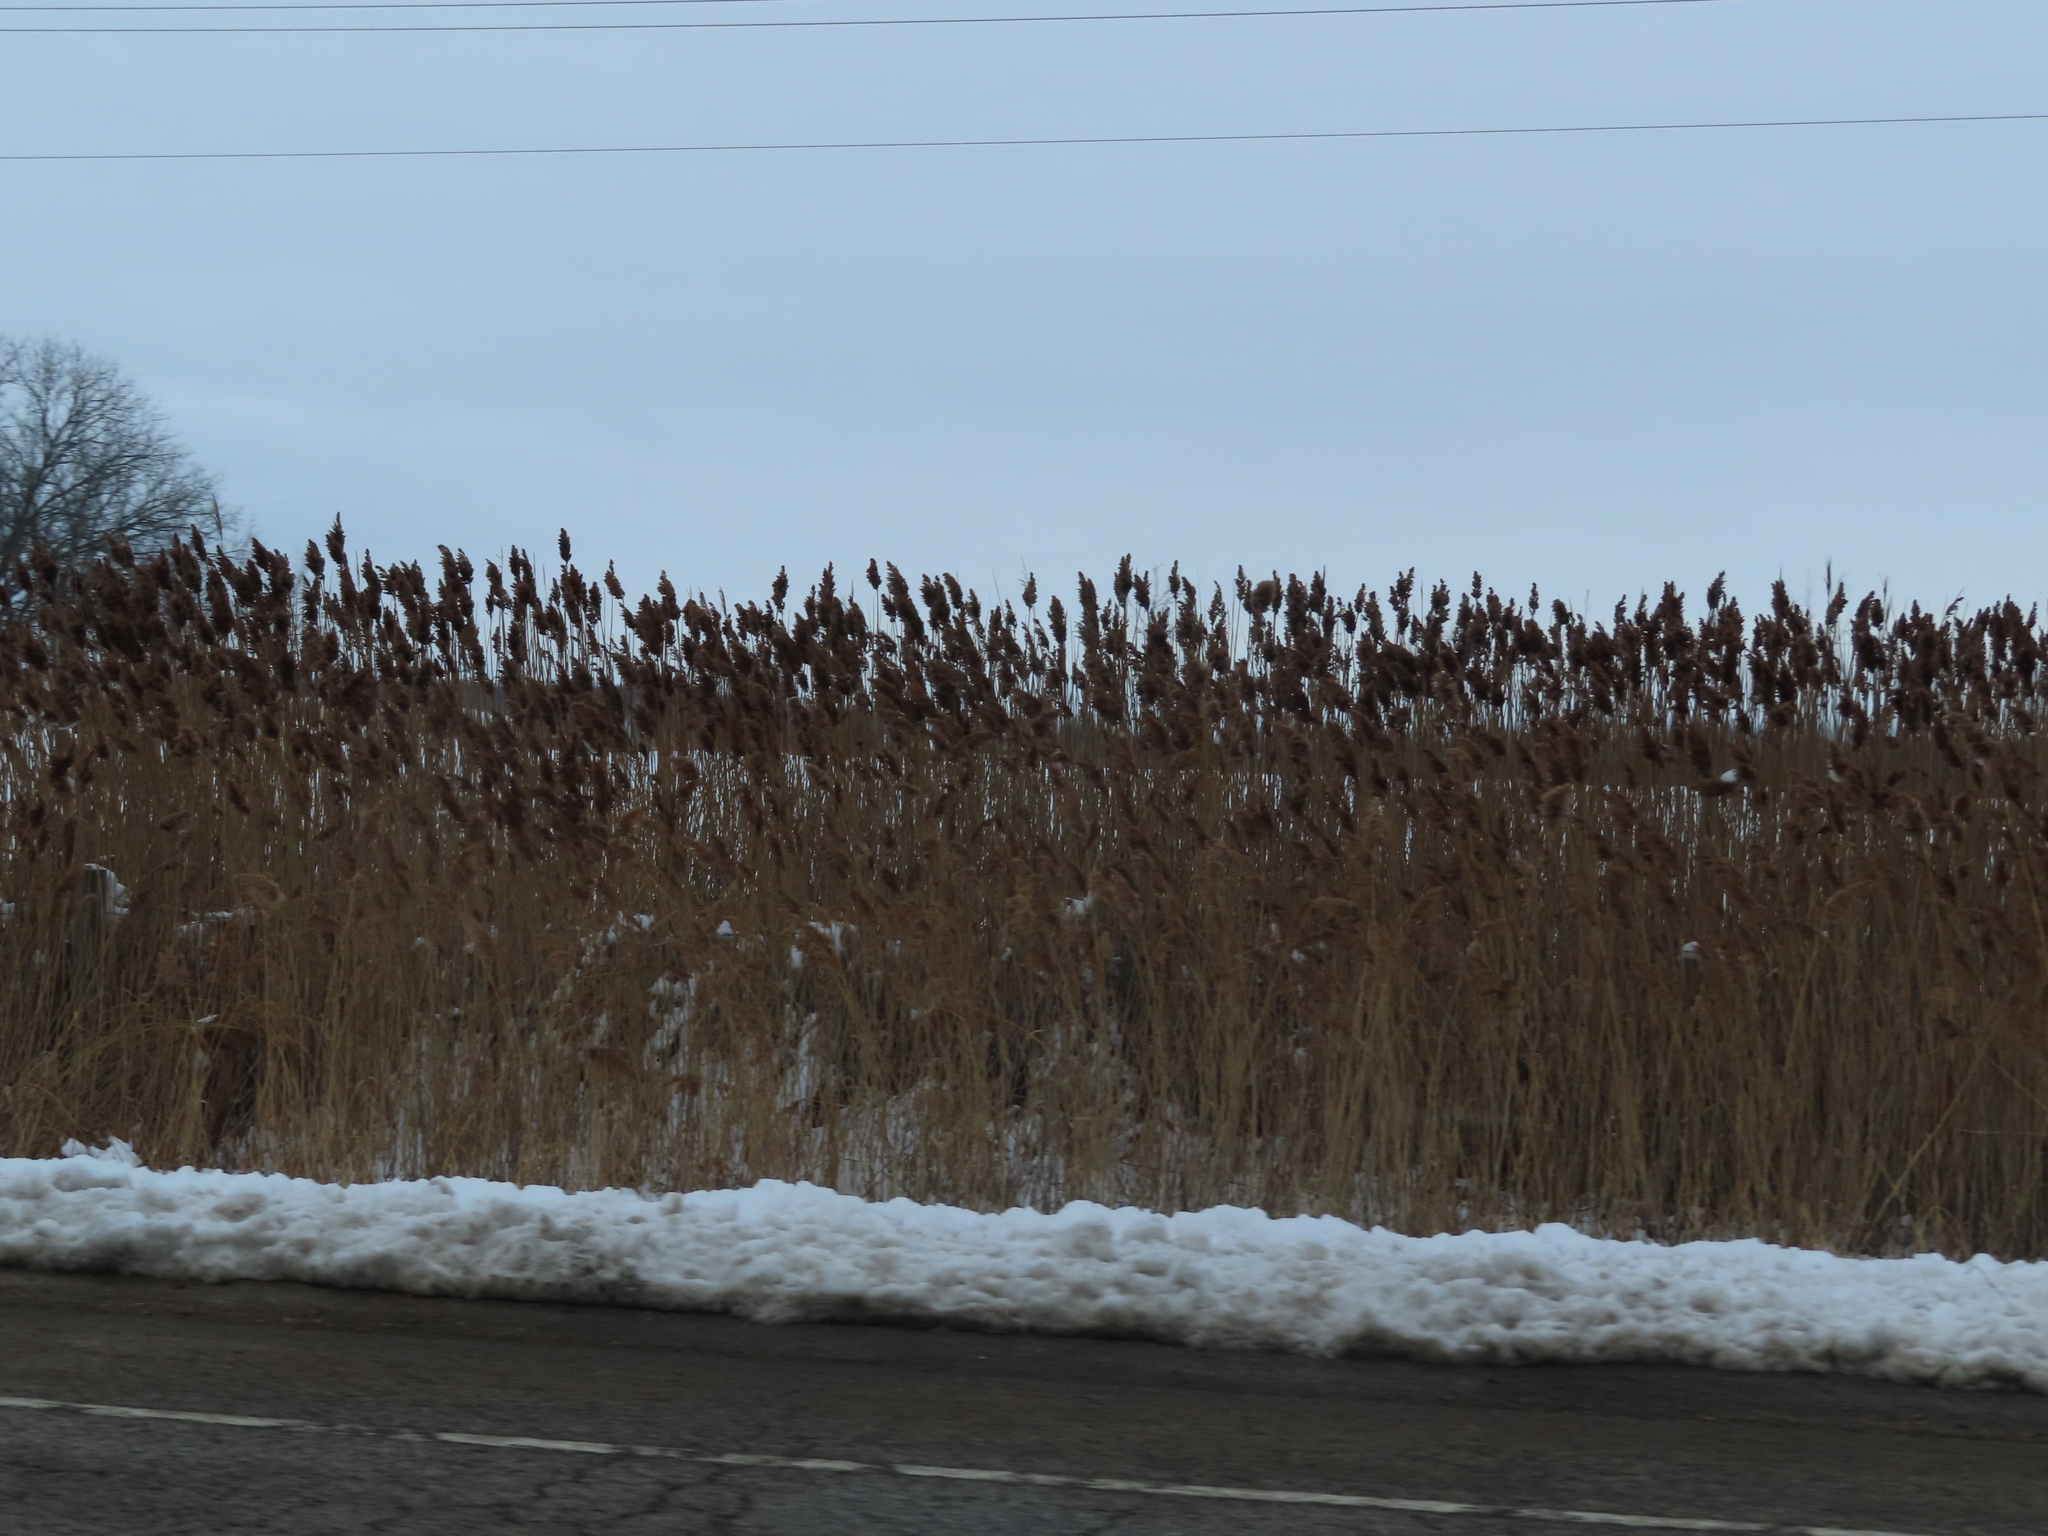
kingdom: Plantae
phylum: Tracheophyta
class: Liliopsida
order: Poales
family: Poaceae
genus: Phragmites
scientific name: Phragmites australis
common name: Common reed
